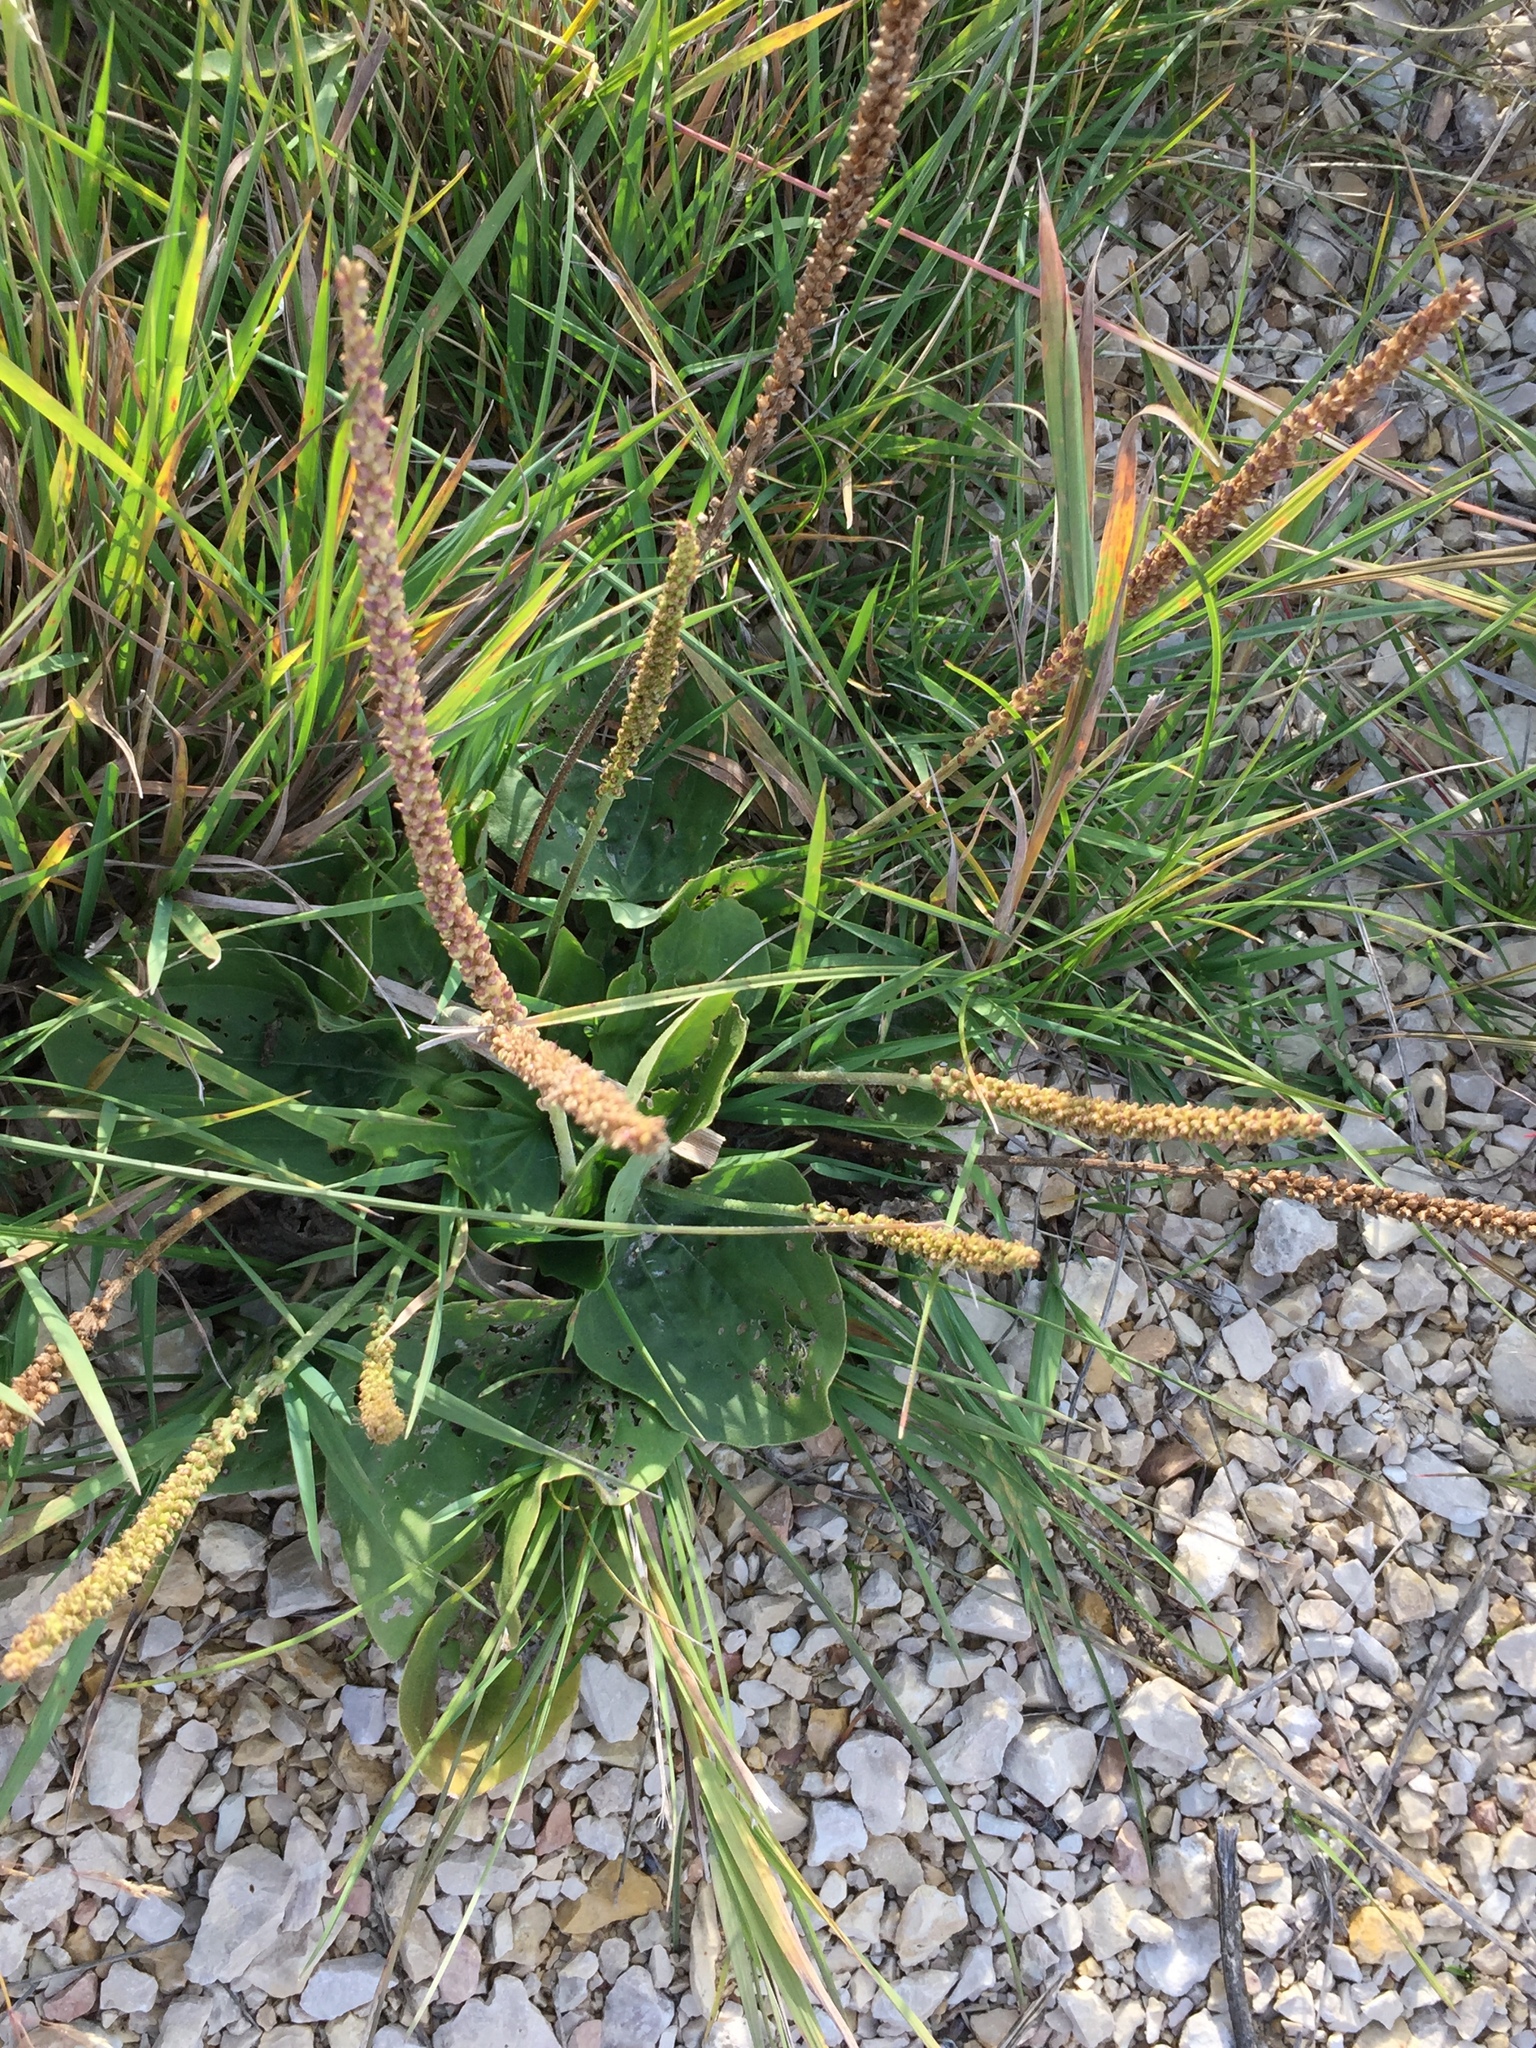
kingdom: Plantae
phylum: Tracheophyta
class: Magnoliopsida
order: Lamiales
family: Plantaginaceae
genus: Plantago
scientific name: Plantago major
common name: Common plantain
